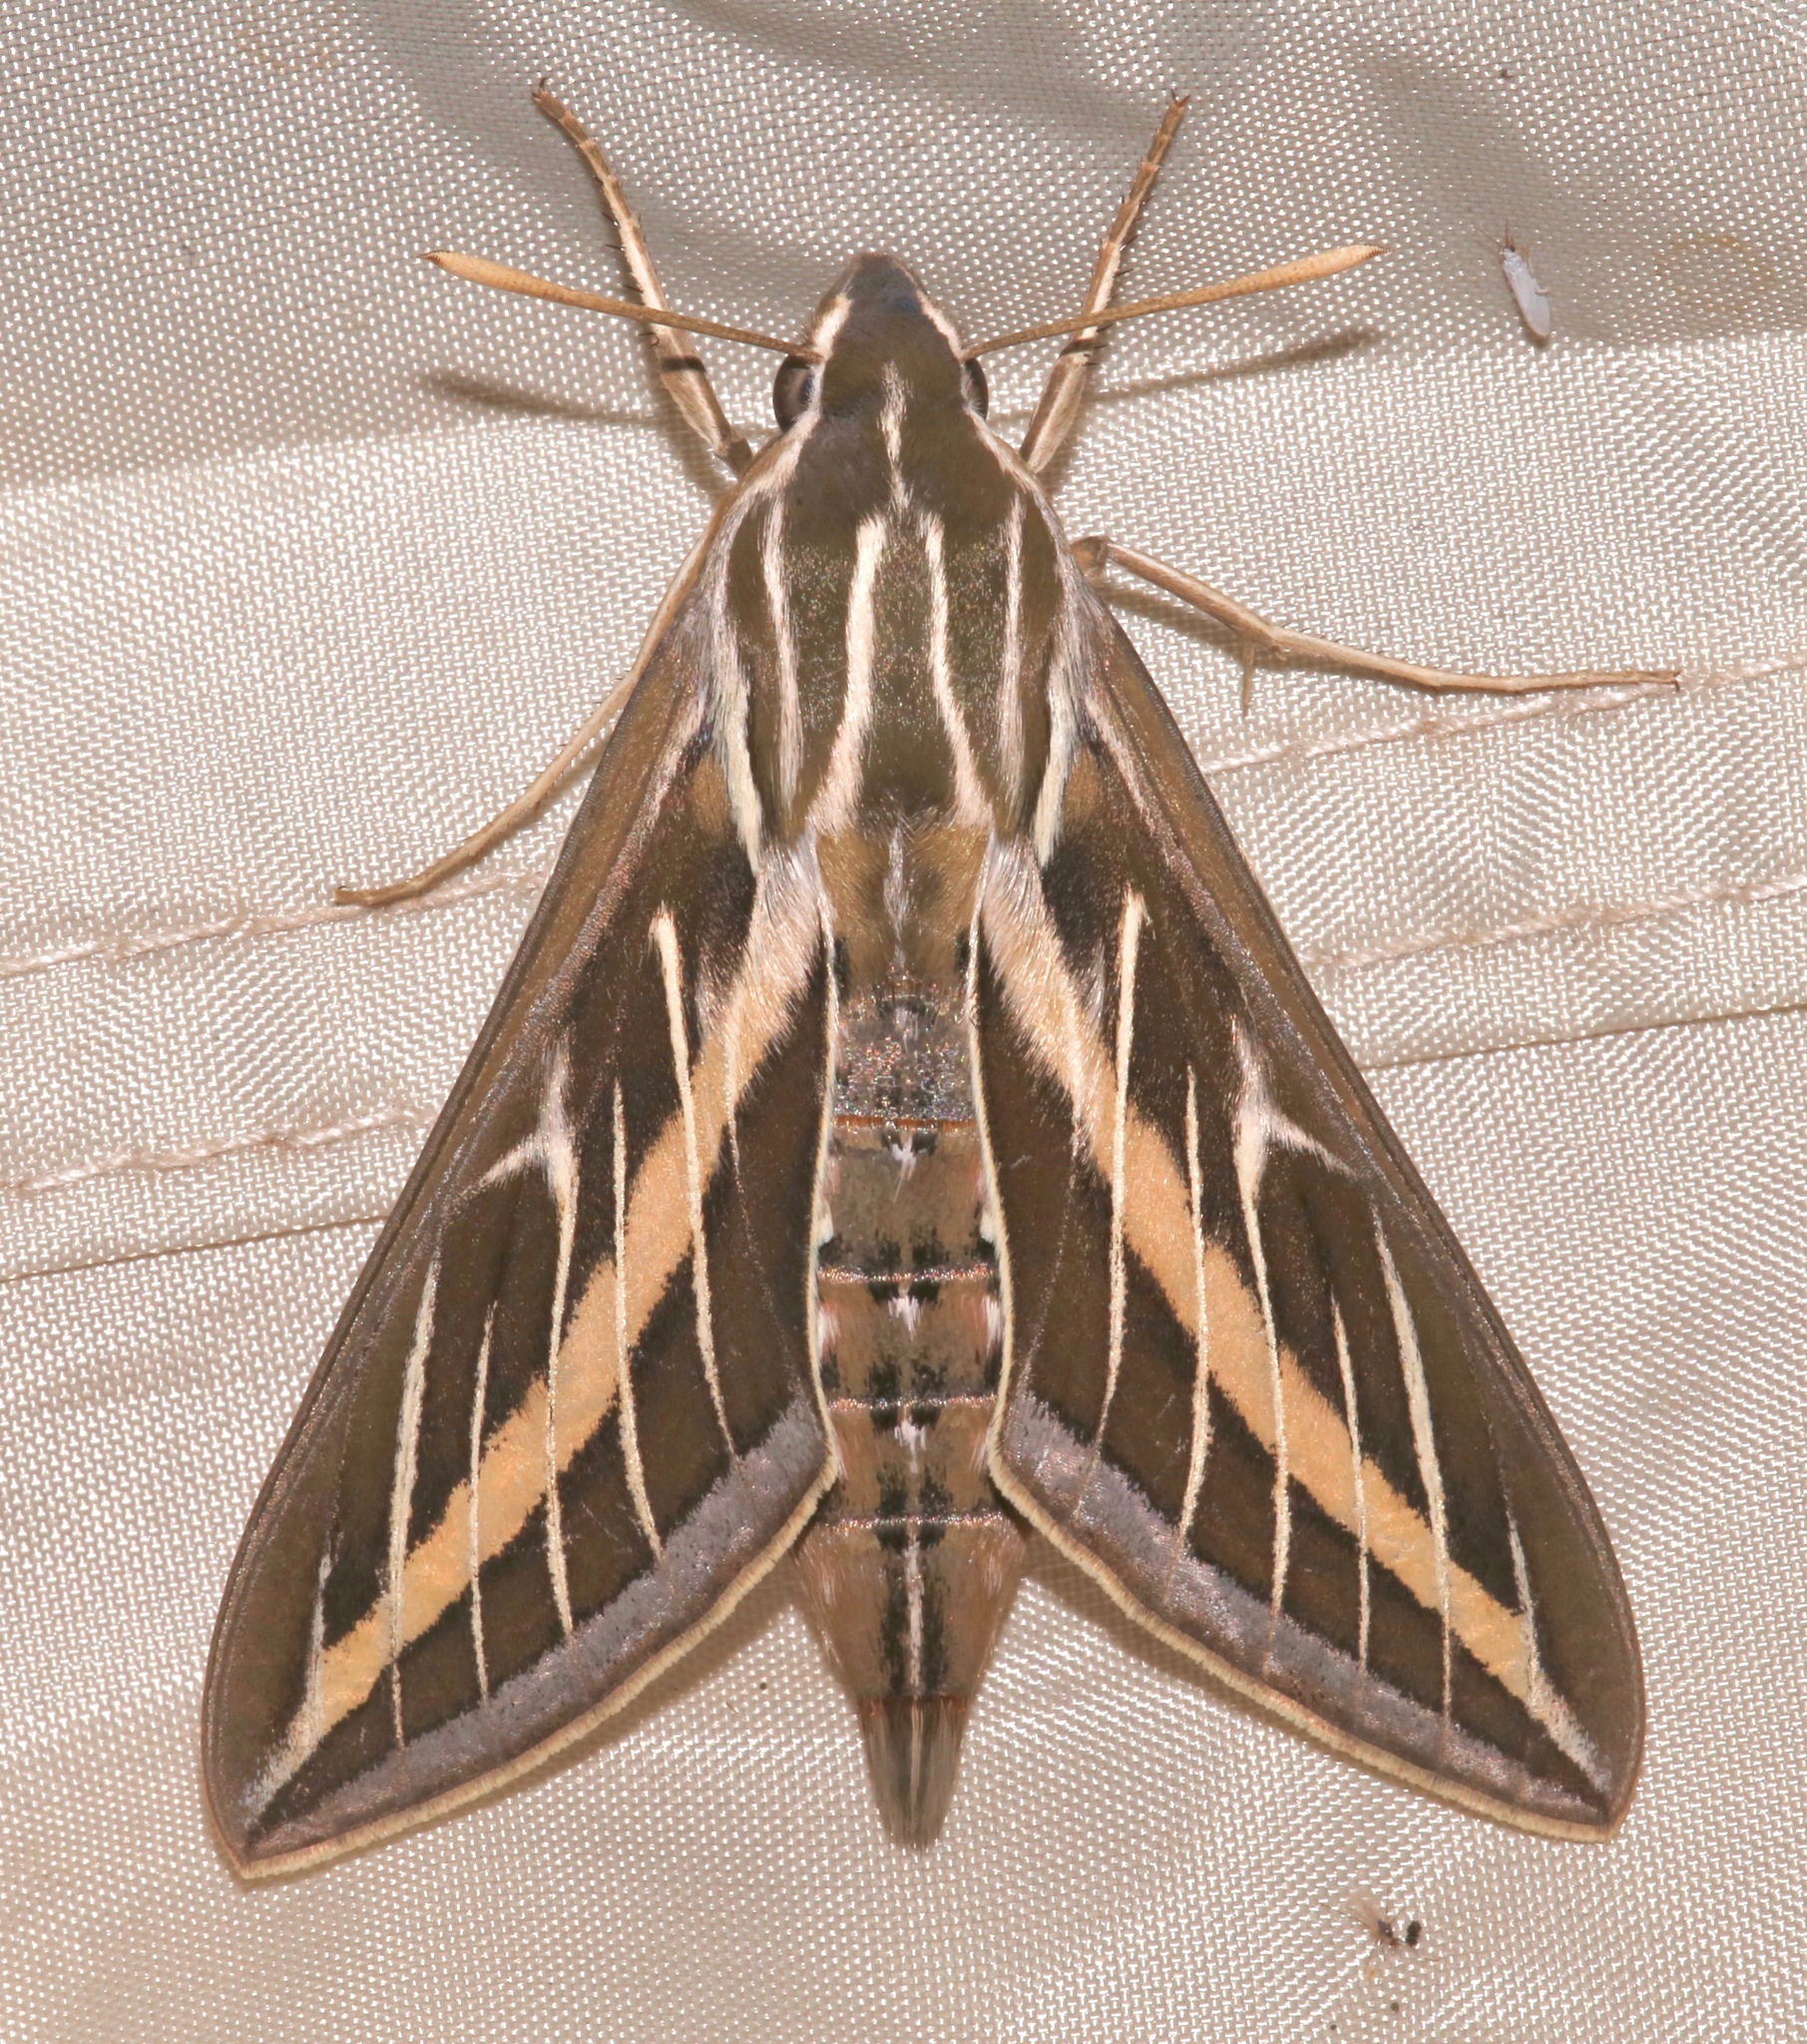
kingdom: Animalia
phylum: Arthropoda
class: Insecta
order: Lepidoptera
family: Sphingidae
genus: Hyles
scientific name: Hyles lineata
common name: White-lined sphinx
